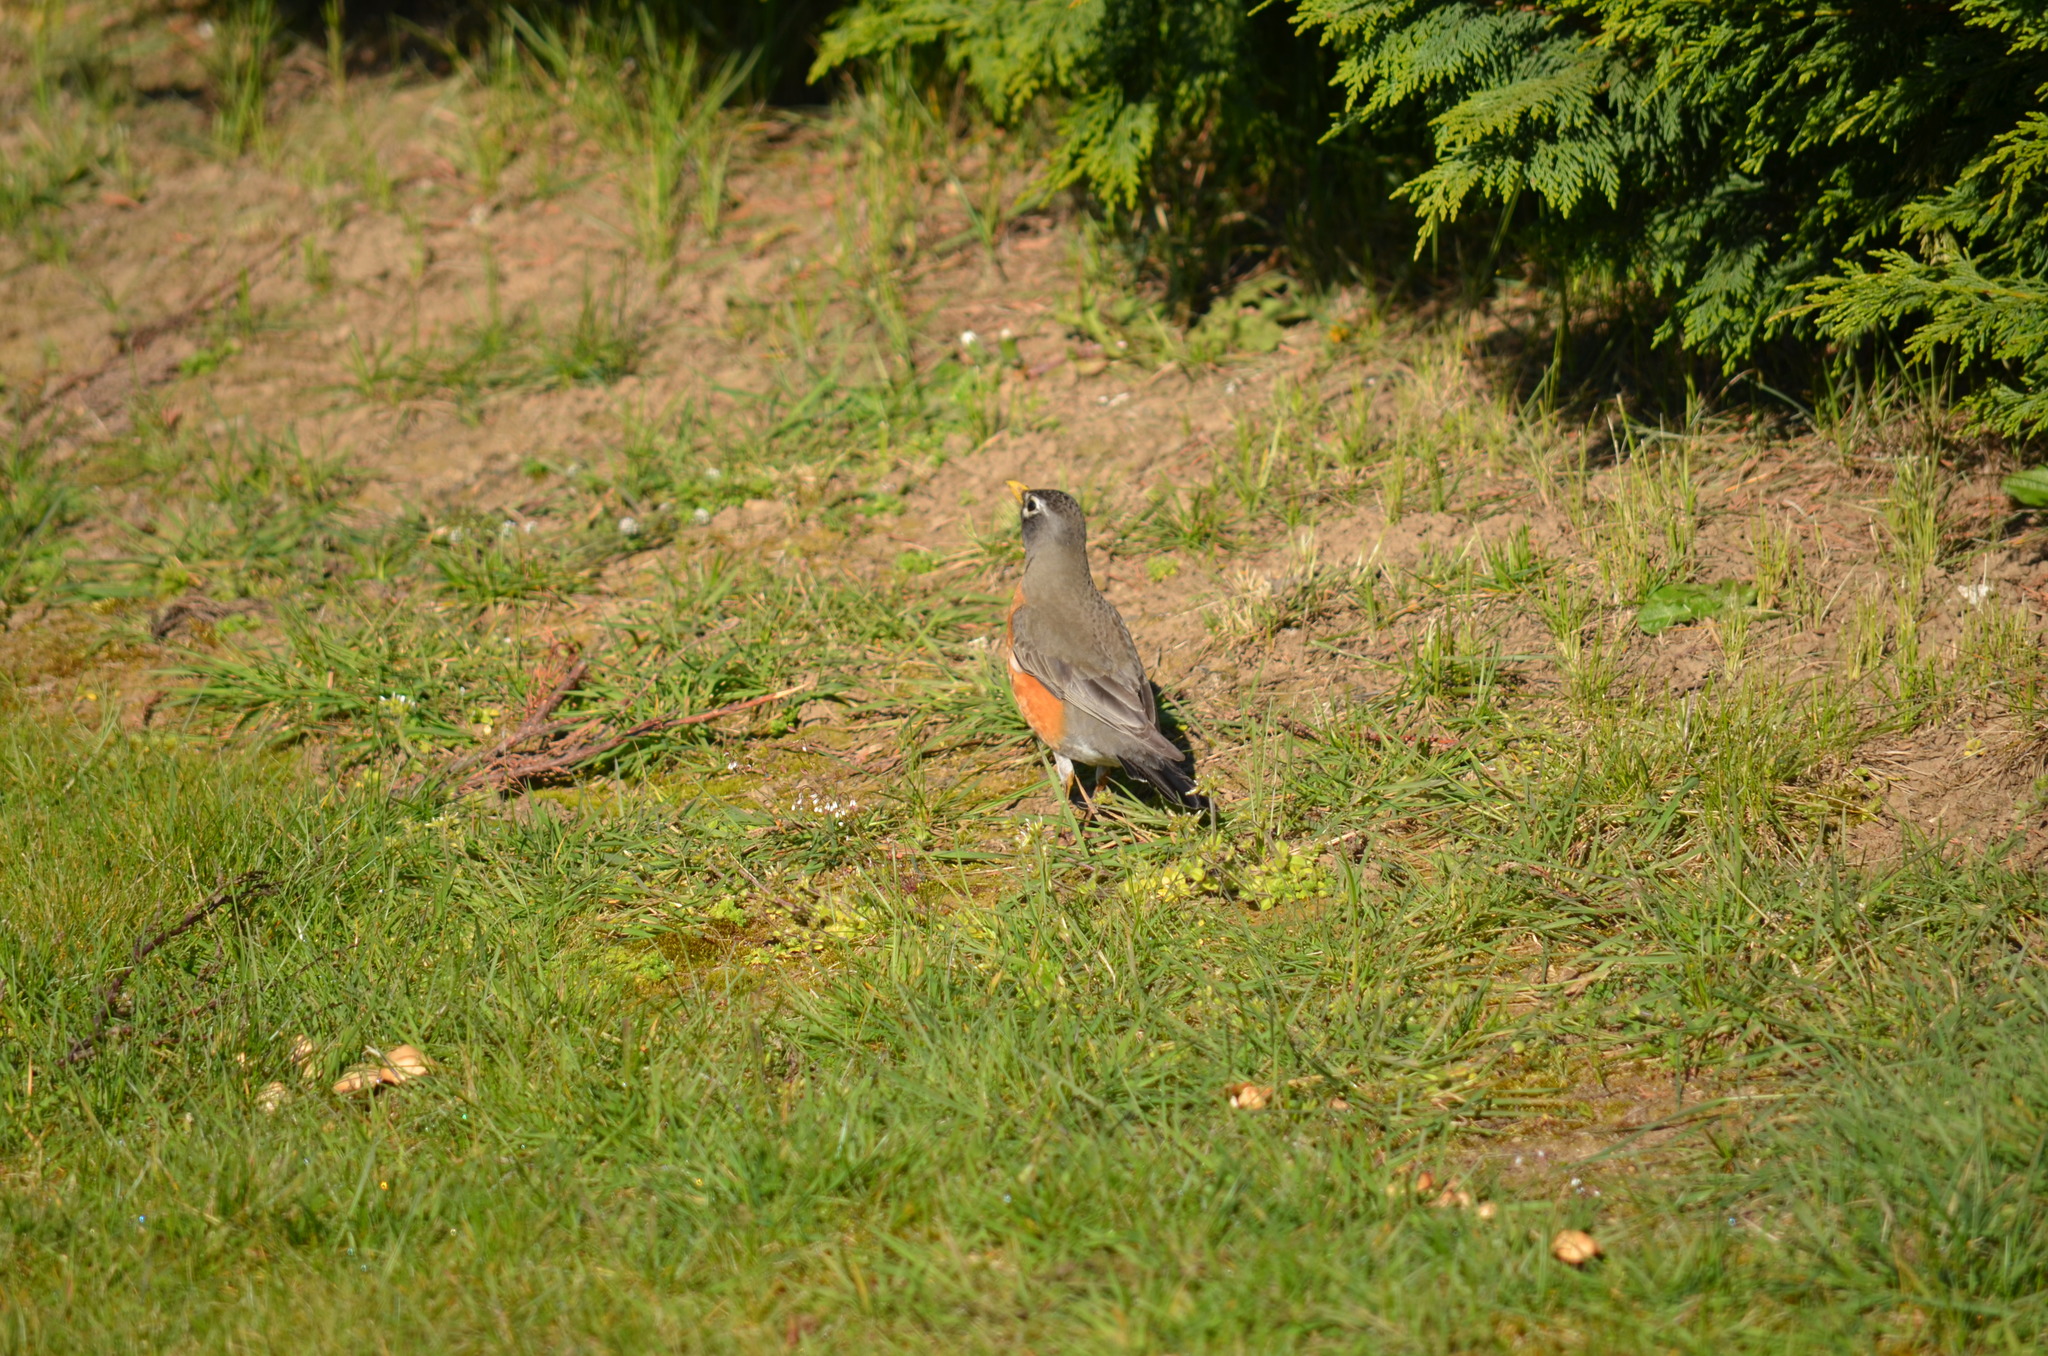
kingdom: Animalia
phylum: Chordata
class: Aves
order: Passeriformes
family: Turdidae
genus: Turdus
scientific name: Turdus migratorius
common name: American robin
